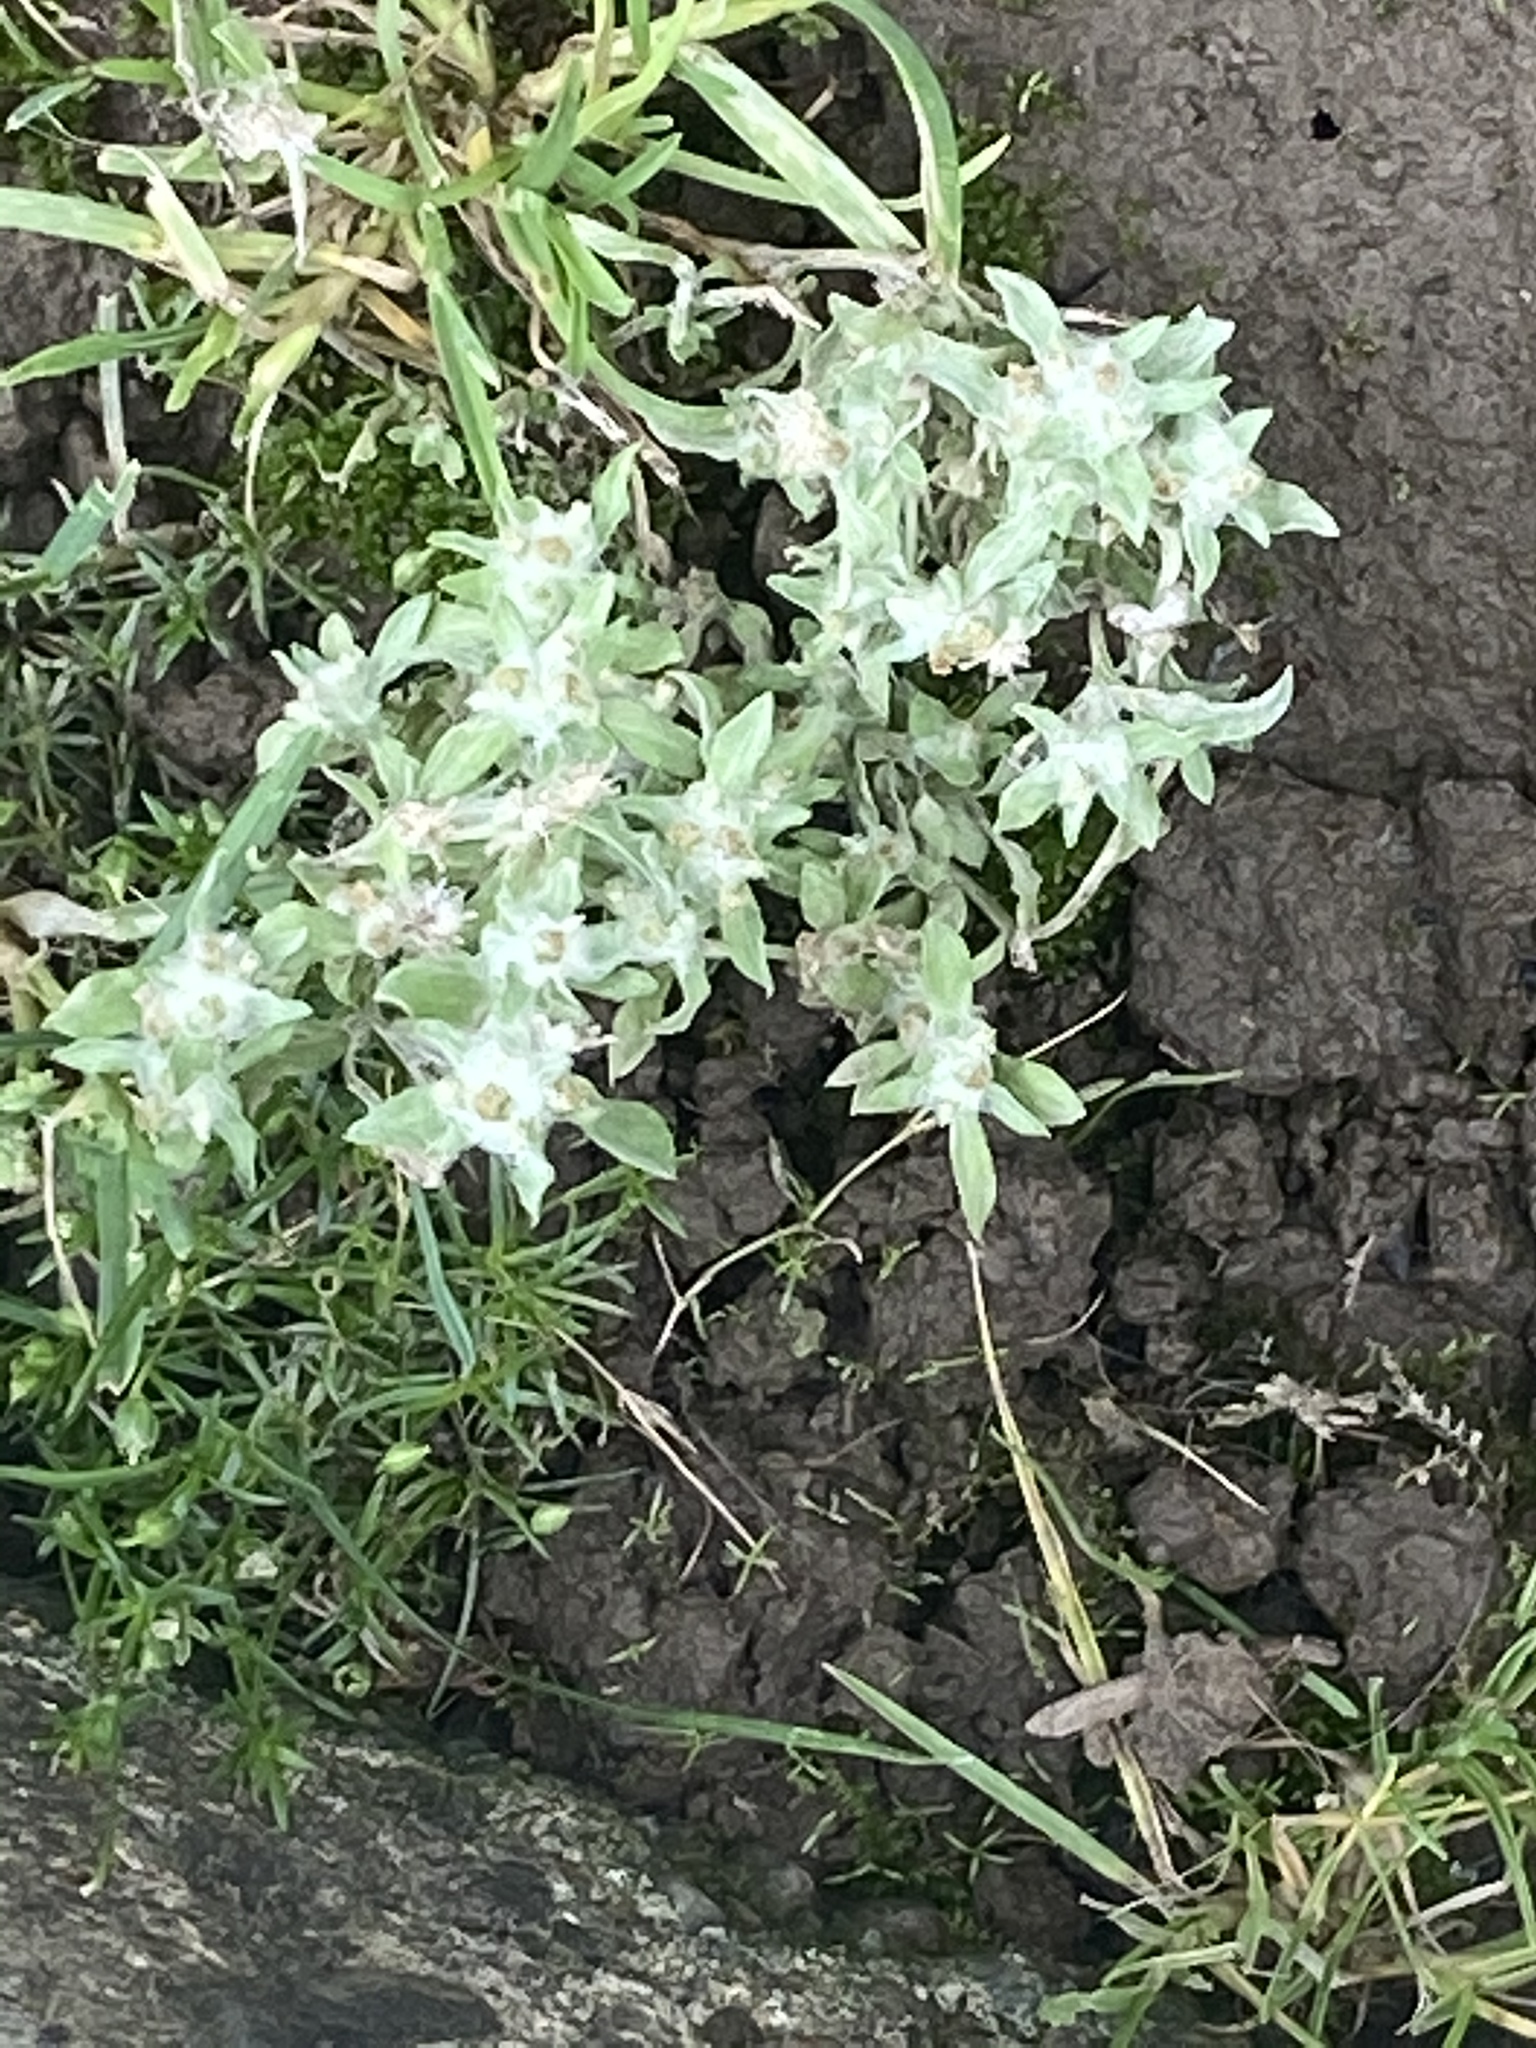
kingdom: Plantae
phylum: Tracheophyta
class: Magnoliopsida
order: Asterales
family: Asteraceae
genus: Gnaphalium
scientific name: Gnaphalium palustre
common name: Western marsh cudweed
